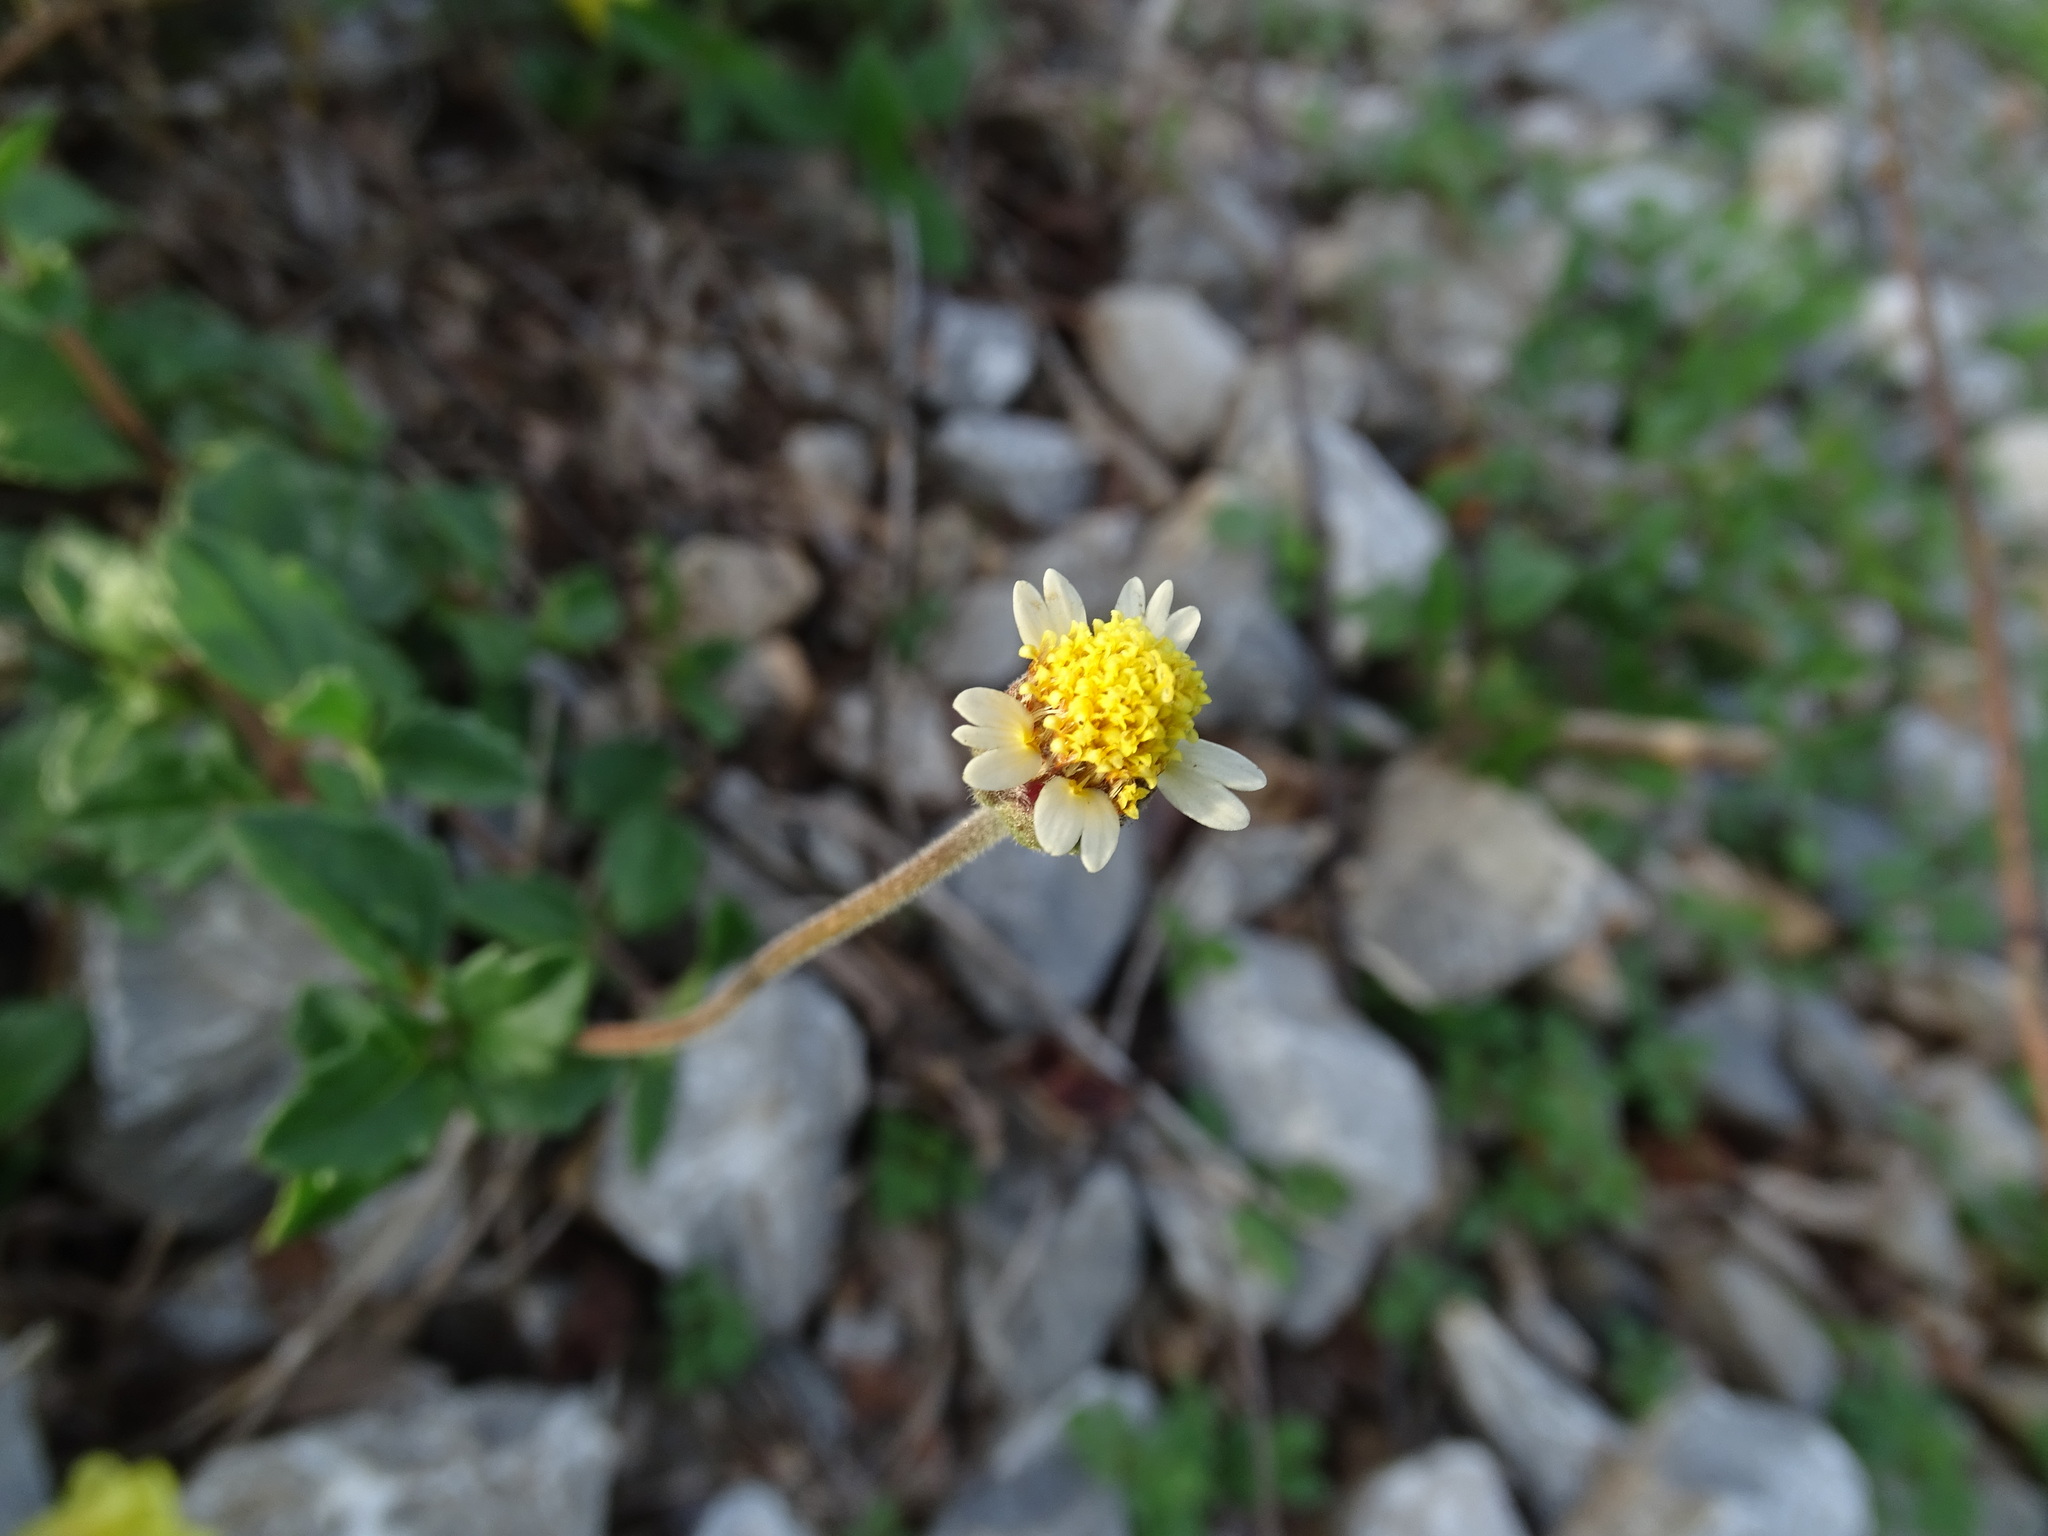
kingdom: Plantae
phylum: Tracheophyta
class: Magnoliopsida
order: Asterales
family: Asteraceae
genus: Tridax
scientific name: Tridax procumbens
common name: Coatbuttons
